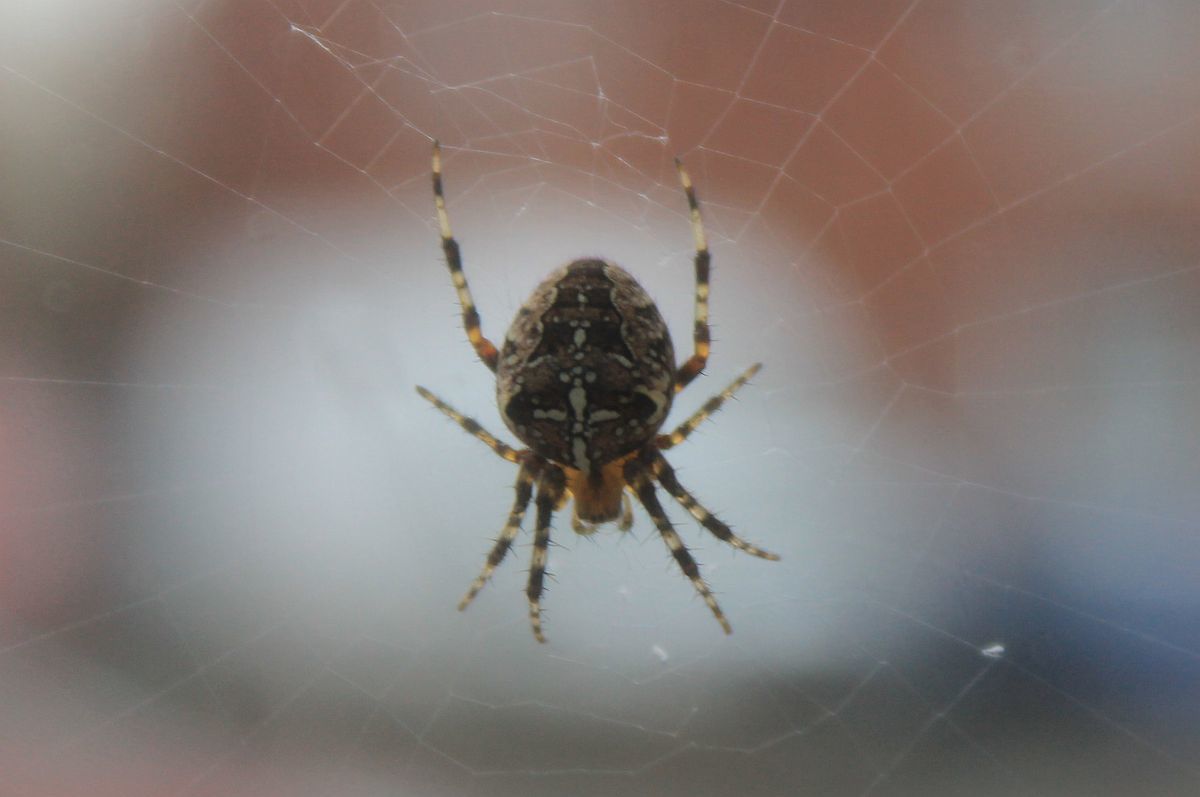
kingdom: Animalia
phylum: Arthropoda
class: Arachnida
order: Araneae
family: Araneidae
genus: Araneus
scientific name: Araneus diadematus
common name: Cross orbweaver
